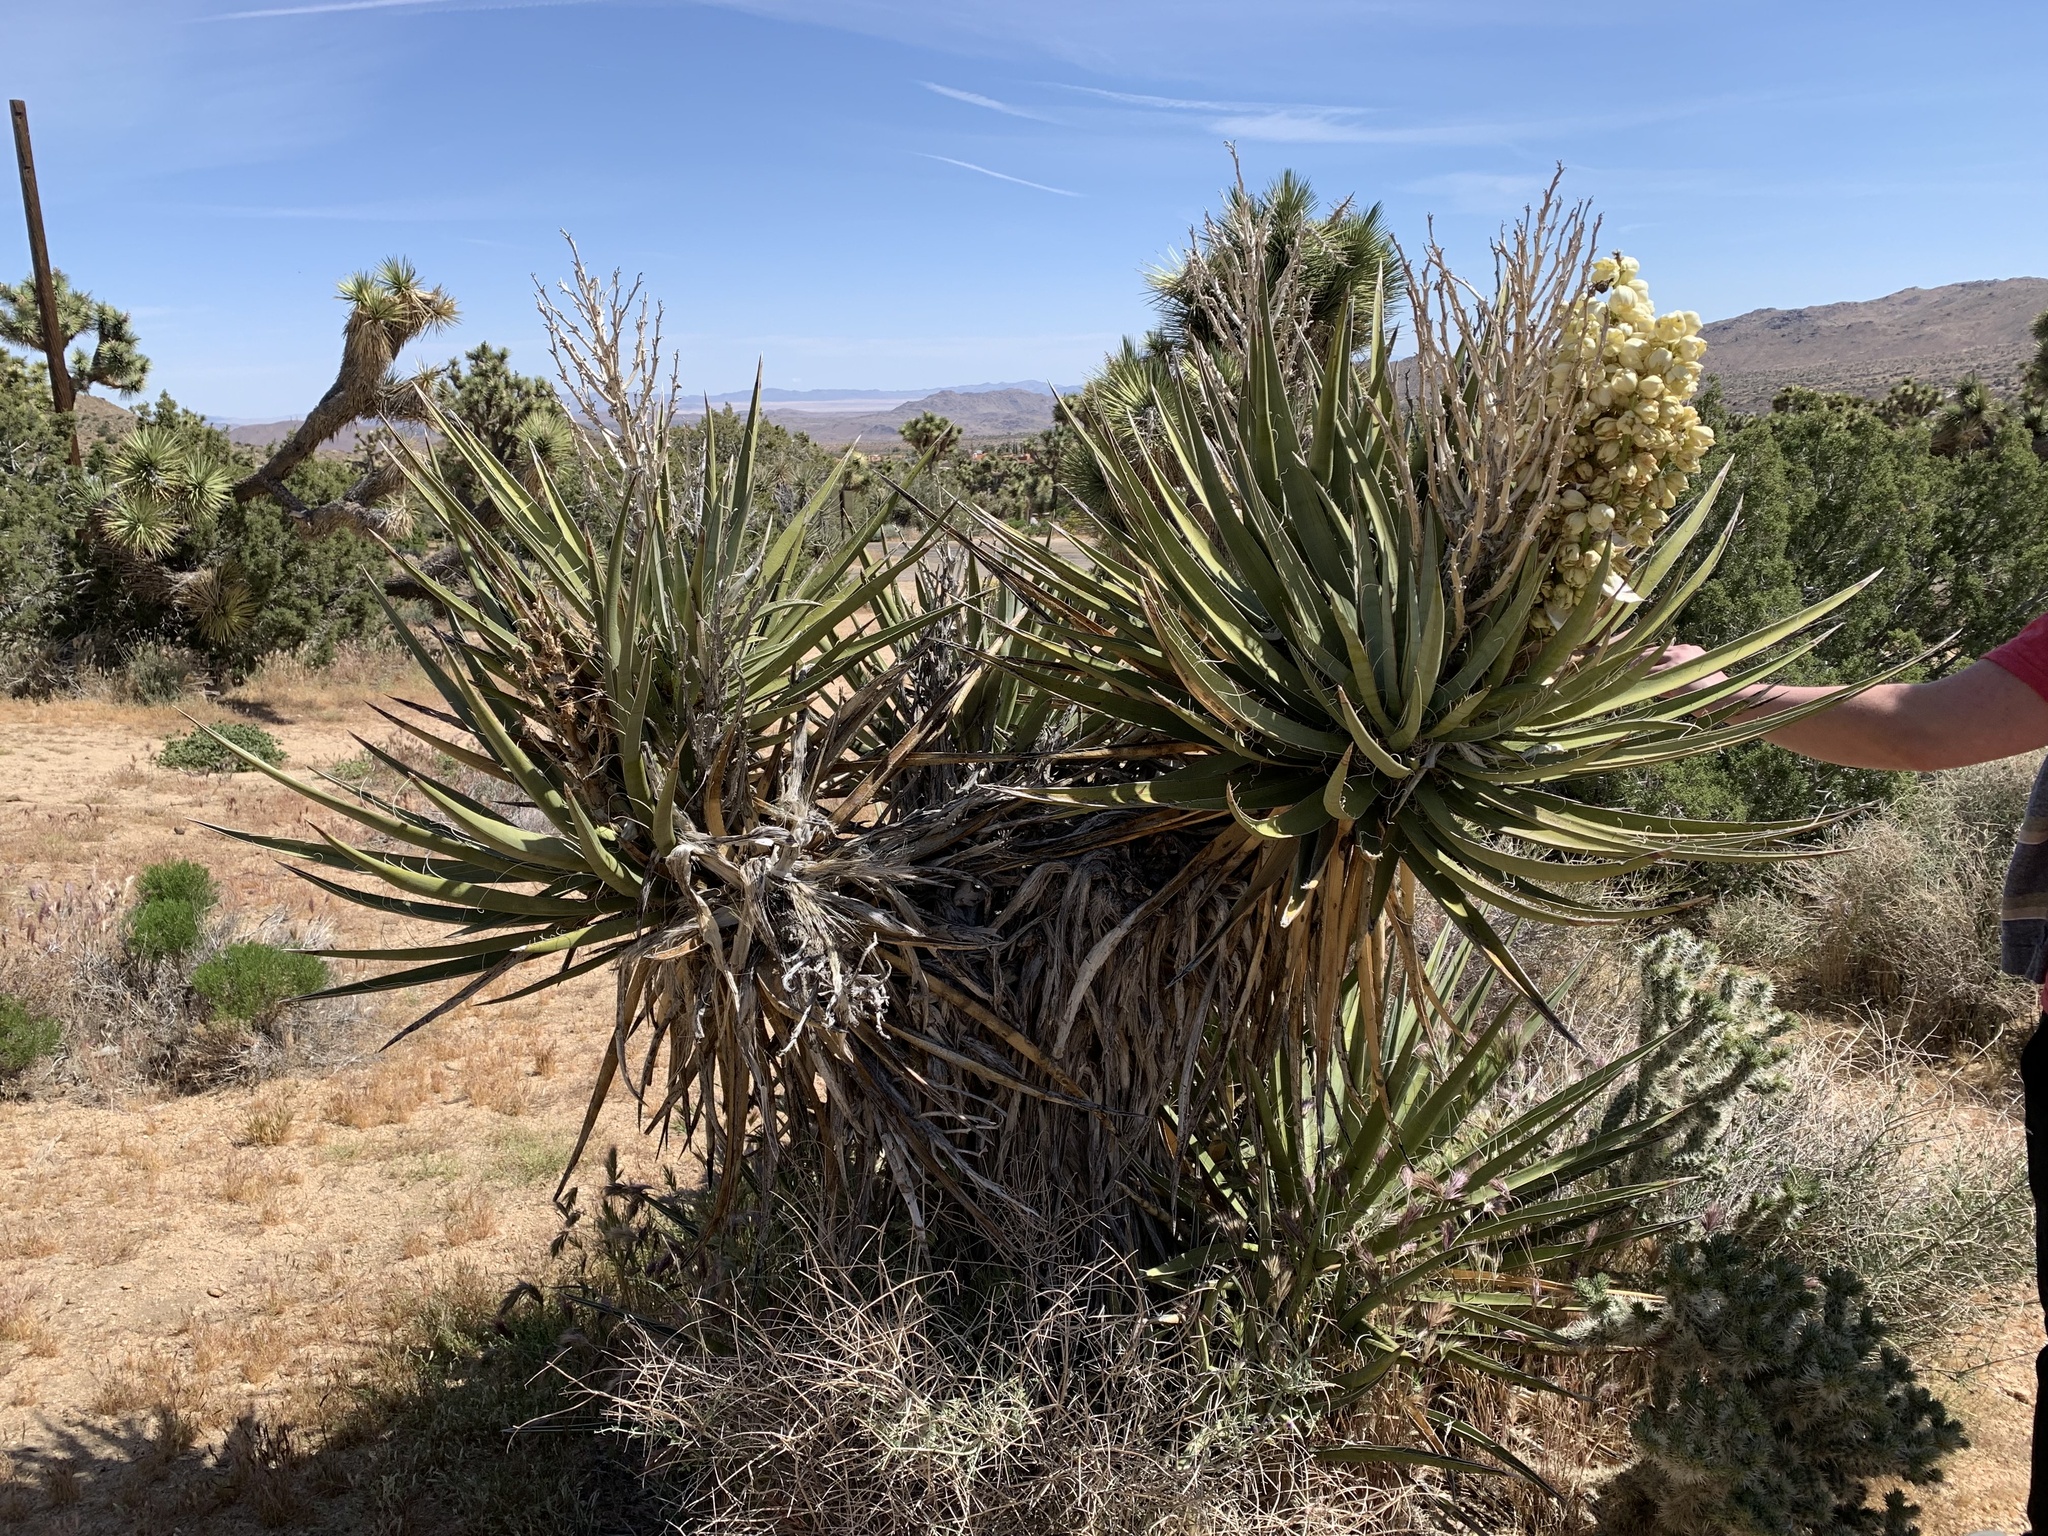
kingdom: Plantae
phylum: Tracheophyta
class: Liliopsida
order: Asparagales
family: Asparagaceae
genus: Yucca
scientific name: Yucca schidigera
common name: Mojave yucca
